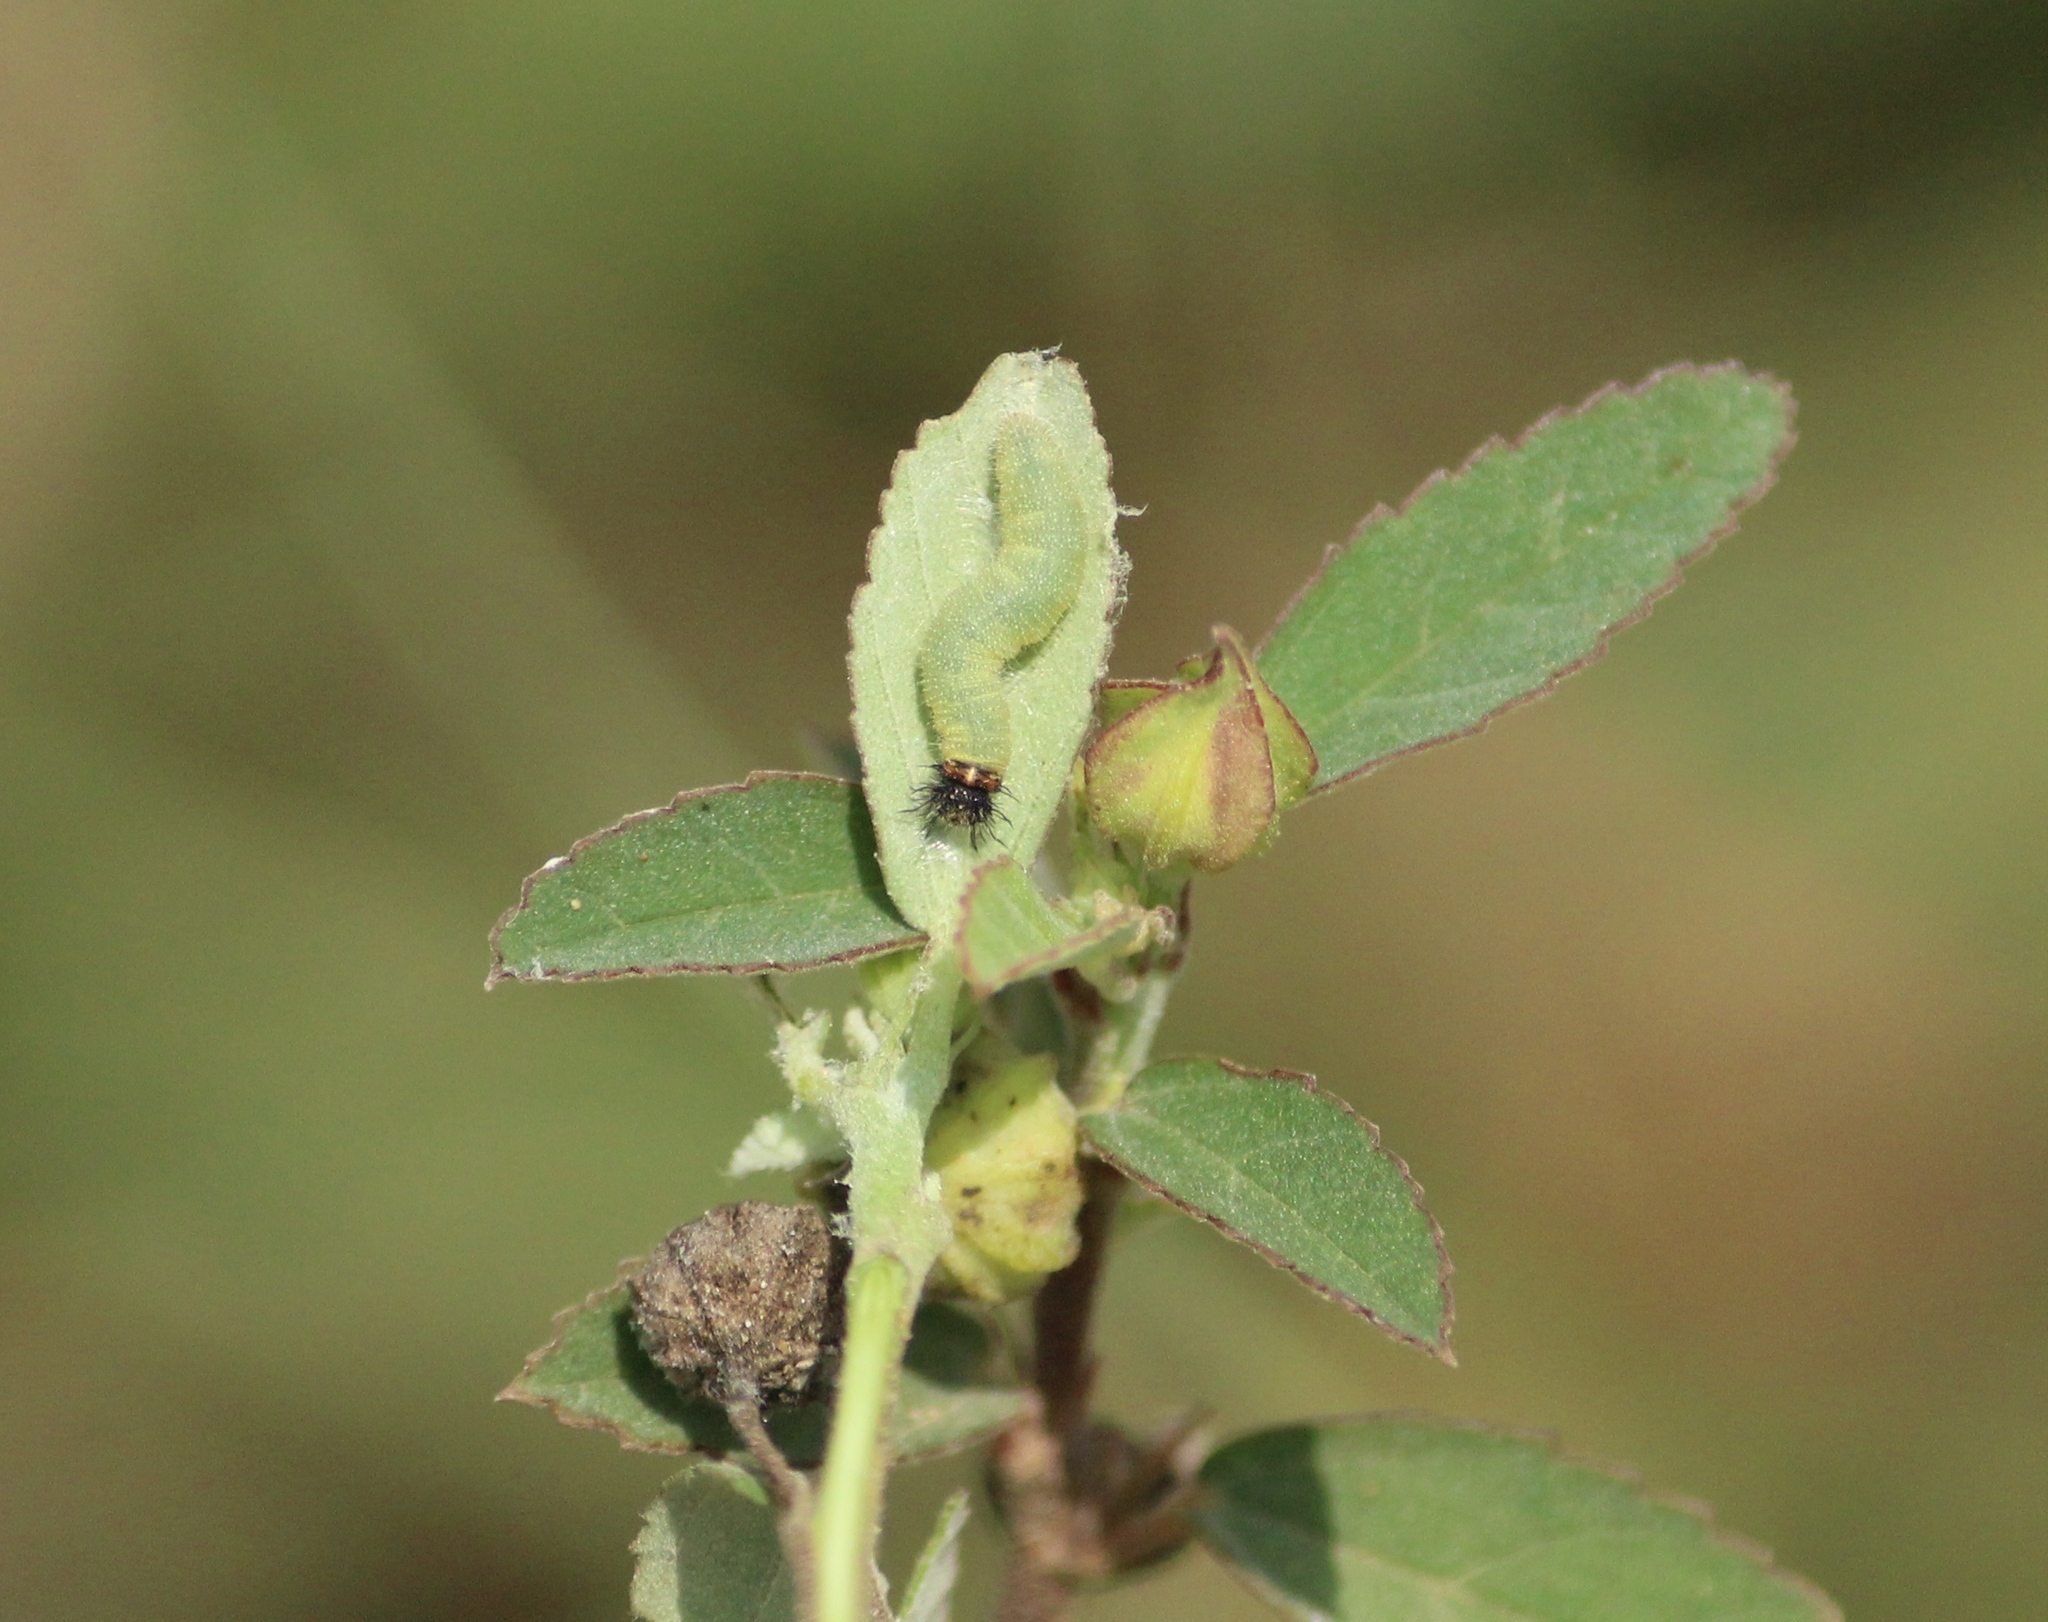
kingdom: Animalia
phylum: Arthropoda
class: Insecta
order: Lepidoptera
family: Hesperiidae
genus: Spialia
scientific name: Spialia galba
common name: Indian skipper
